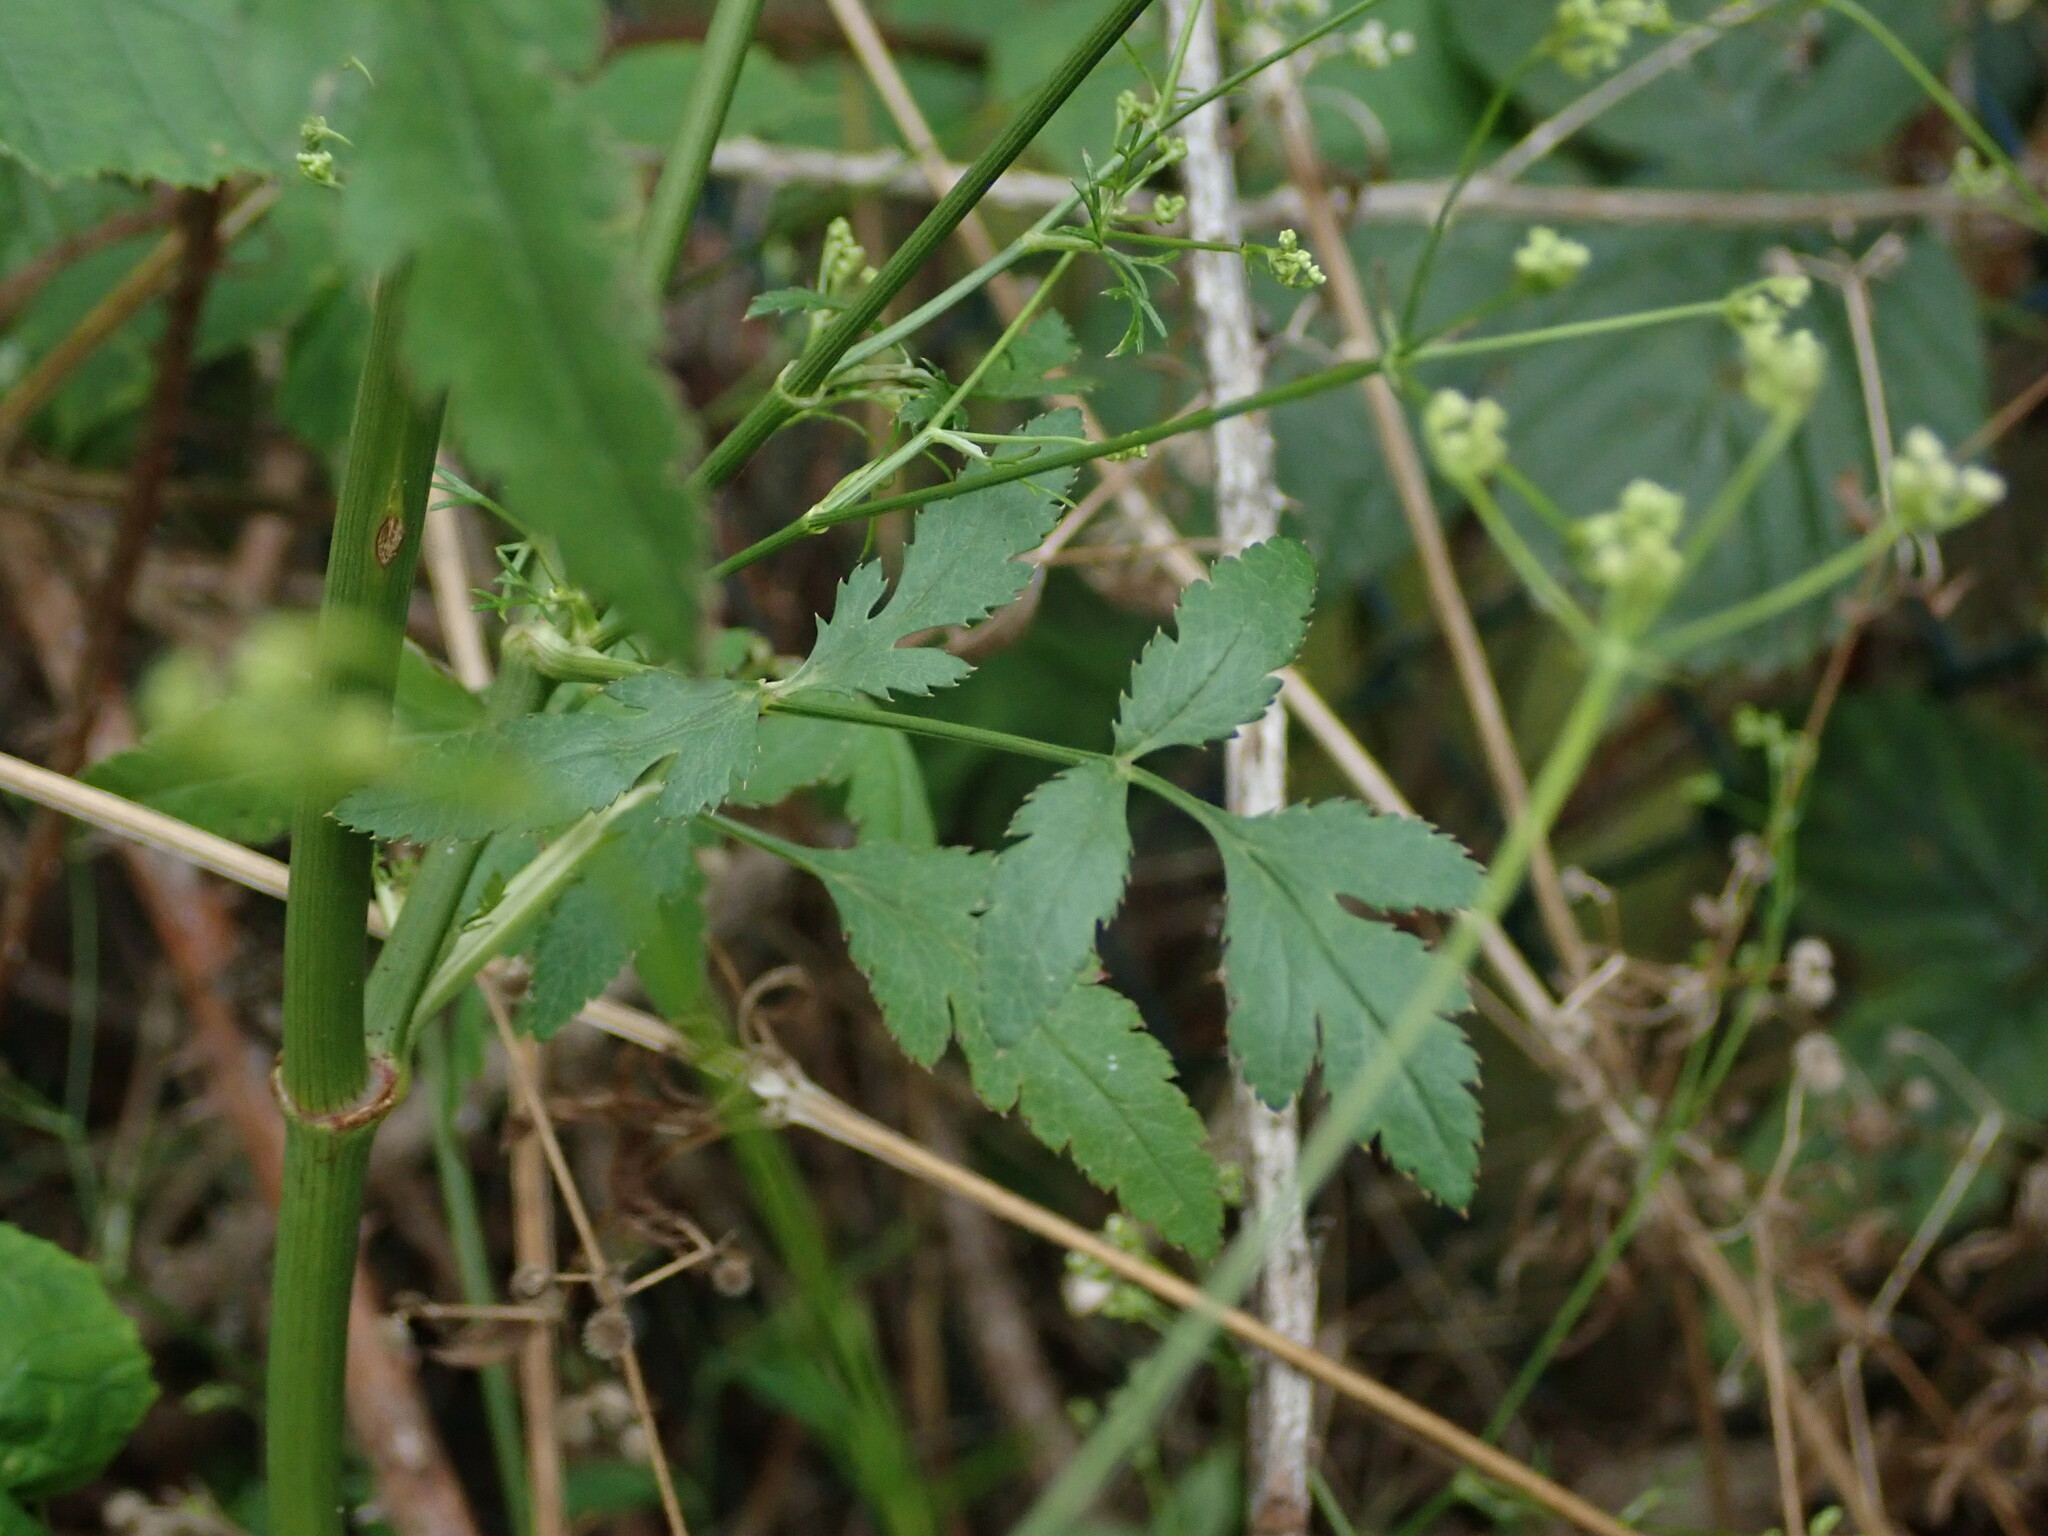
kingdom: Plantae
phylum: Tracheophyta
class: Magnoliopsida
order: Apiales
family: Apiaceae
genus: Sison
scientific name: Sison amomum
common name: Stone-parsley
